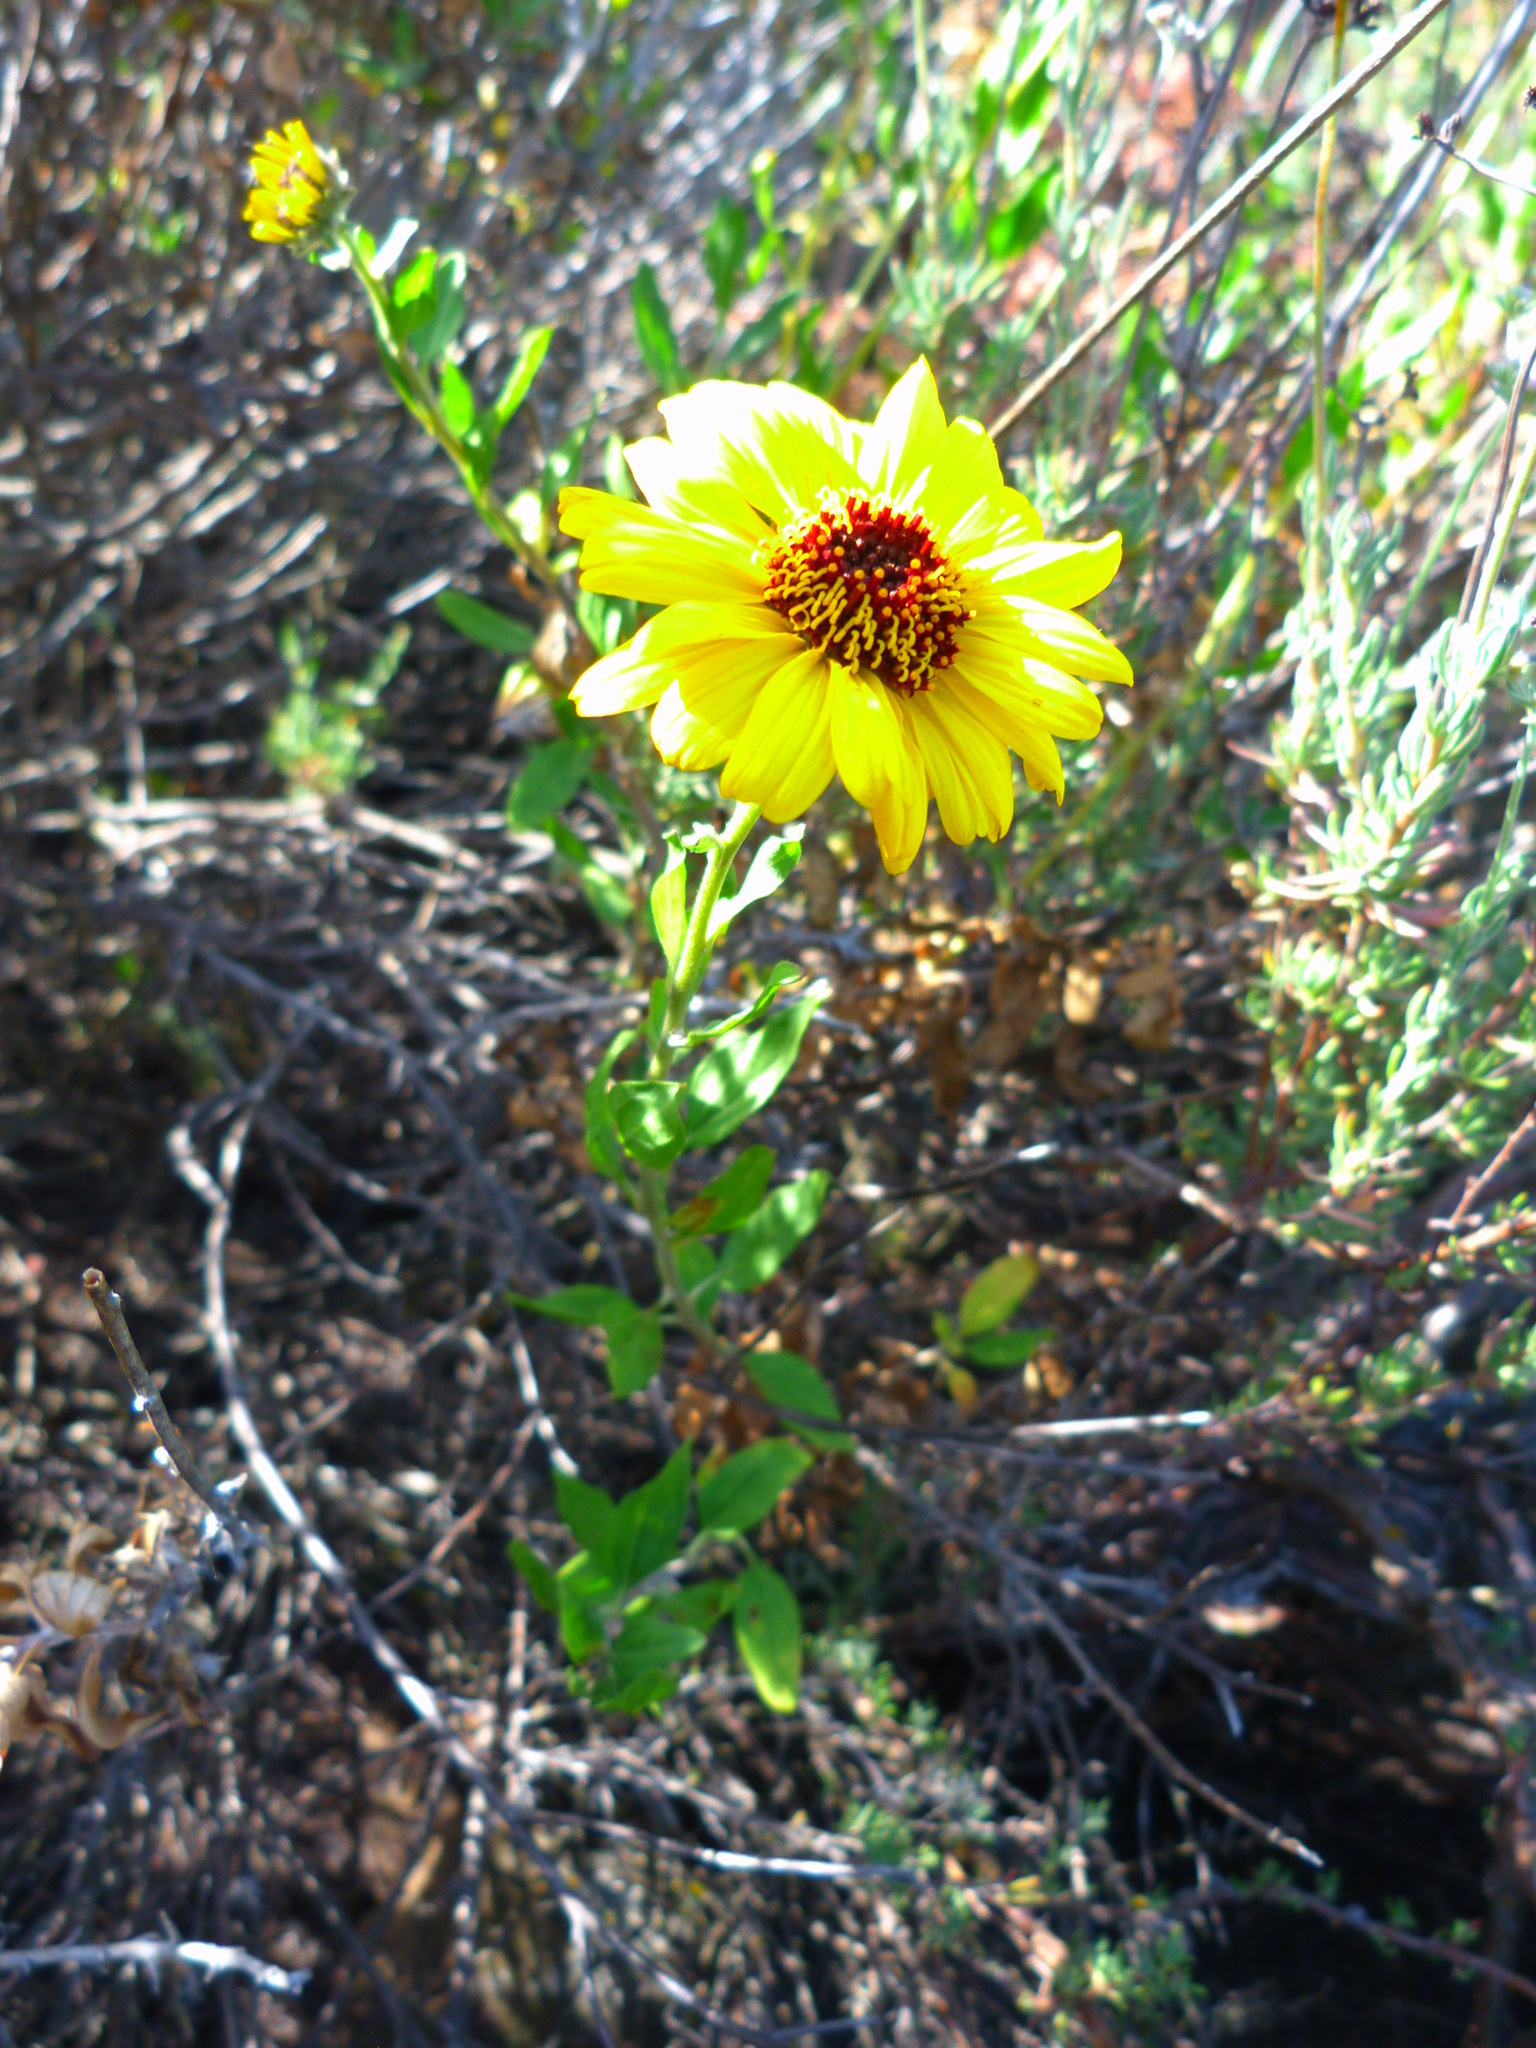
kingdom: Plantae
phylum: Tracheophyta
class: Magnoliopsida
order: Asterales
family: Asteraceae
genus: Encelia
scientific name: Encelia californica
